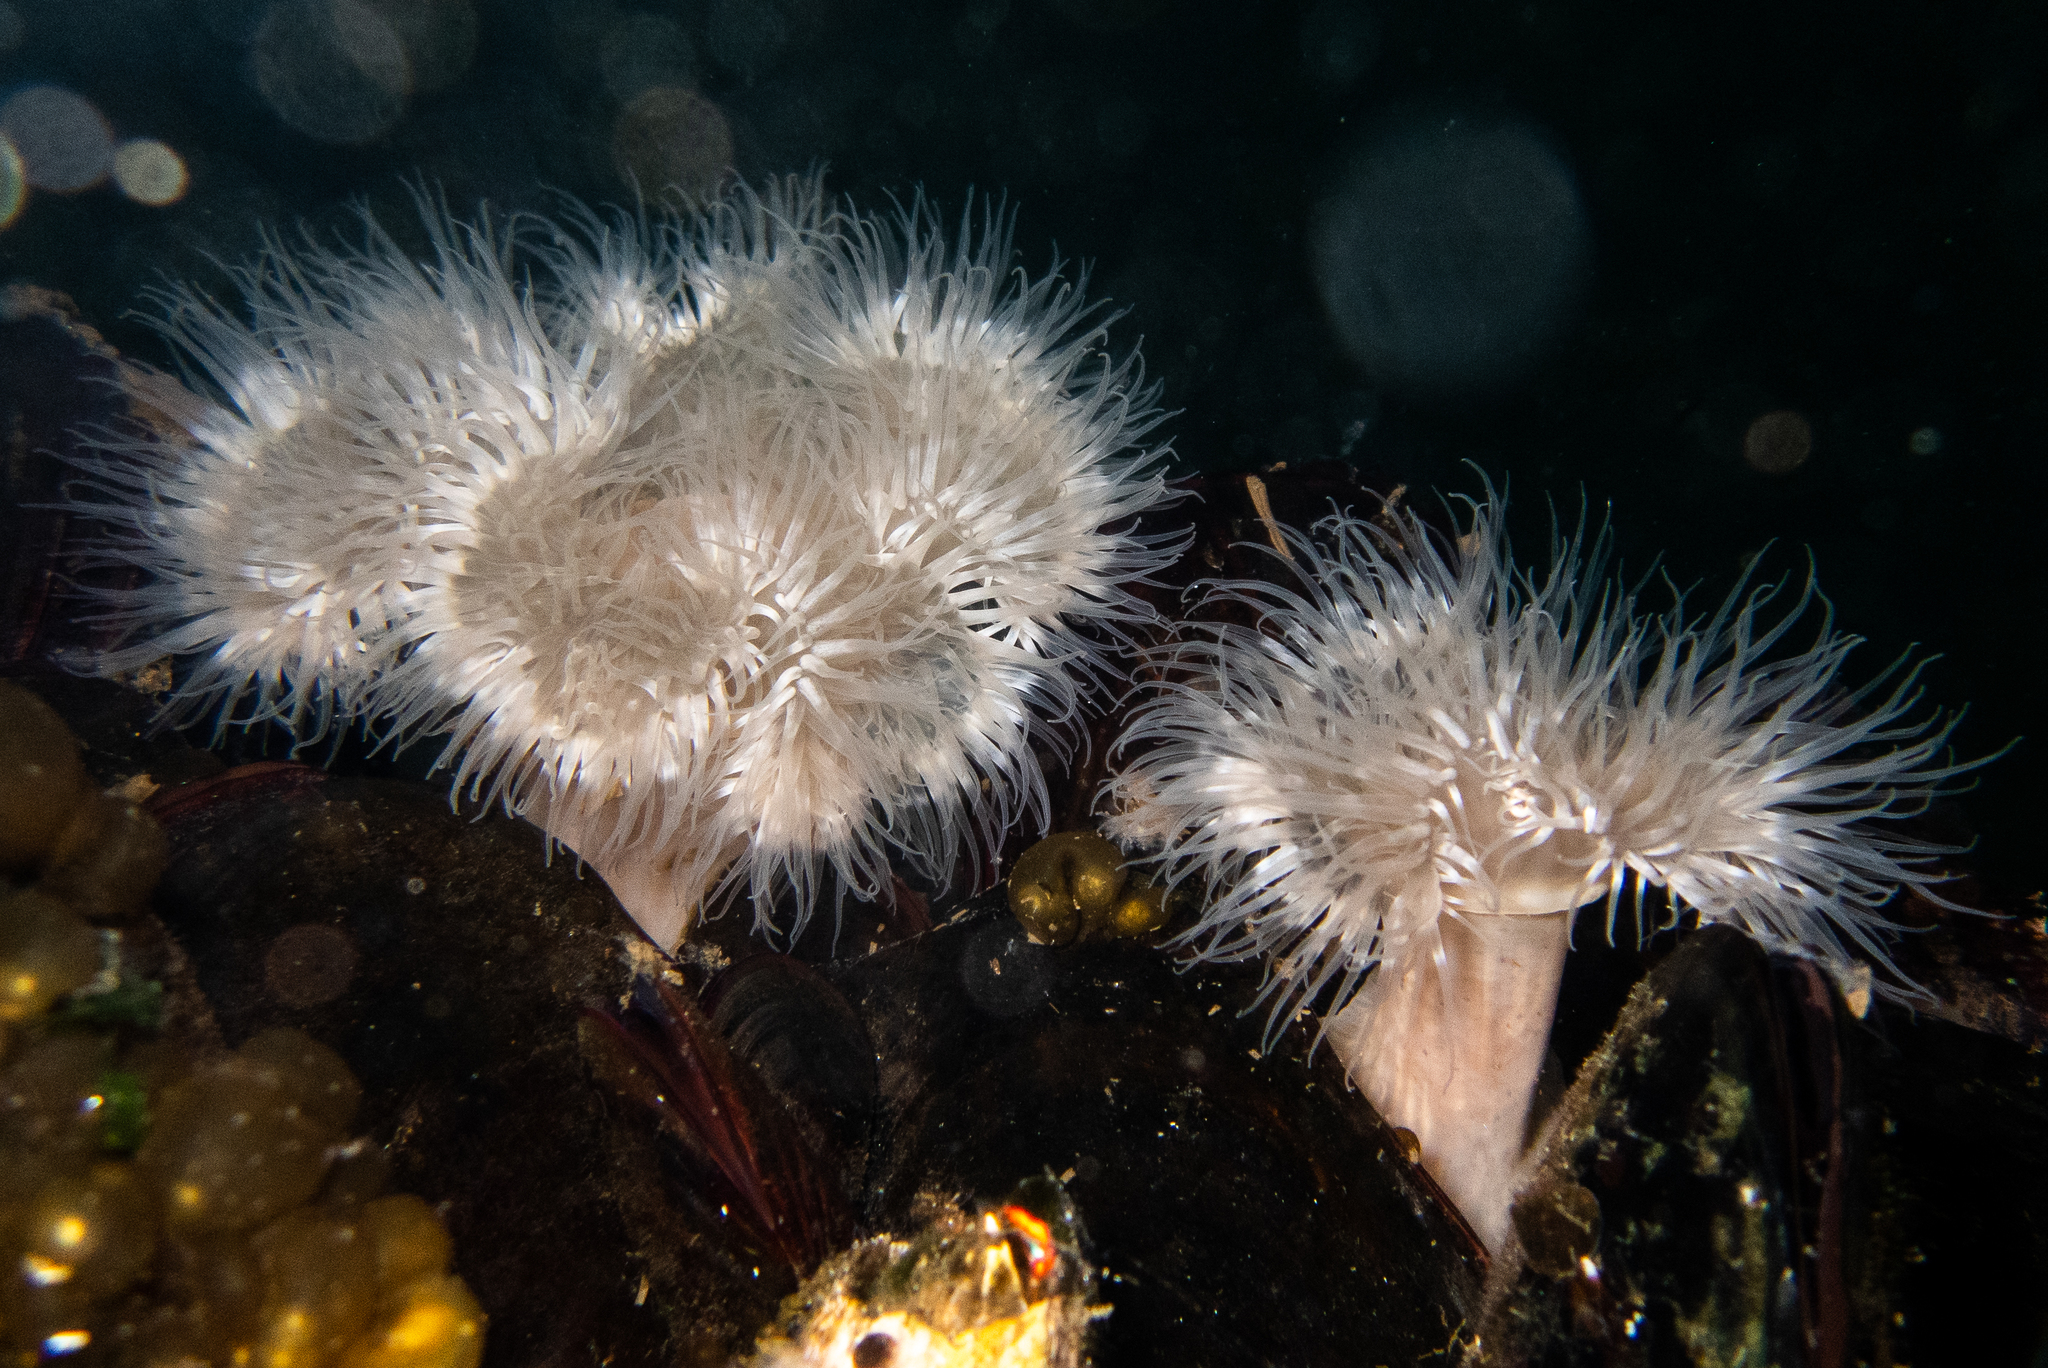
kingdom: Animalia
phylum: Cnidaria
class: Anthozoa
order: Actiniaria
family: Metridiidae
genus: Metridium
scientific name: Metridium senile
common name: Clonal plumose anemone
